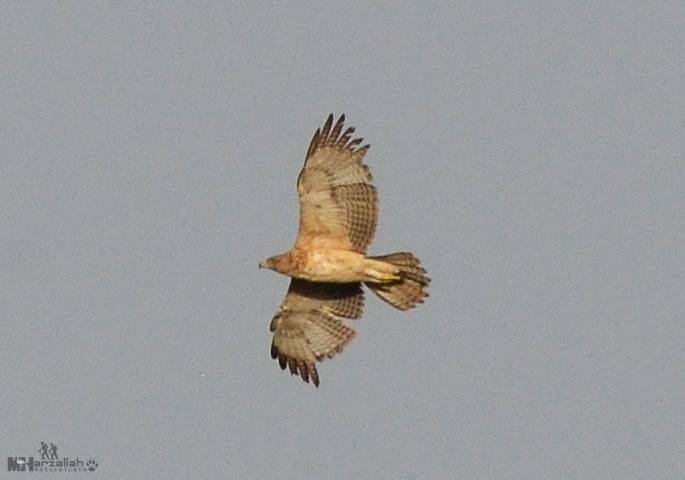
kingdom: Animalia
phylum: Chordata
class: Aves
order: Accipitriformes
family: Accipitridae
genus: Aquila
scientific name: Aquila fasciata
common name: Bonelli's eagle
